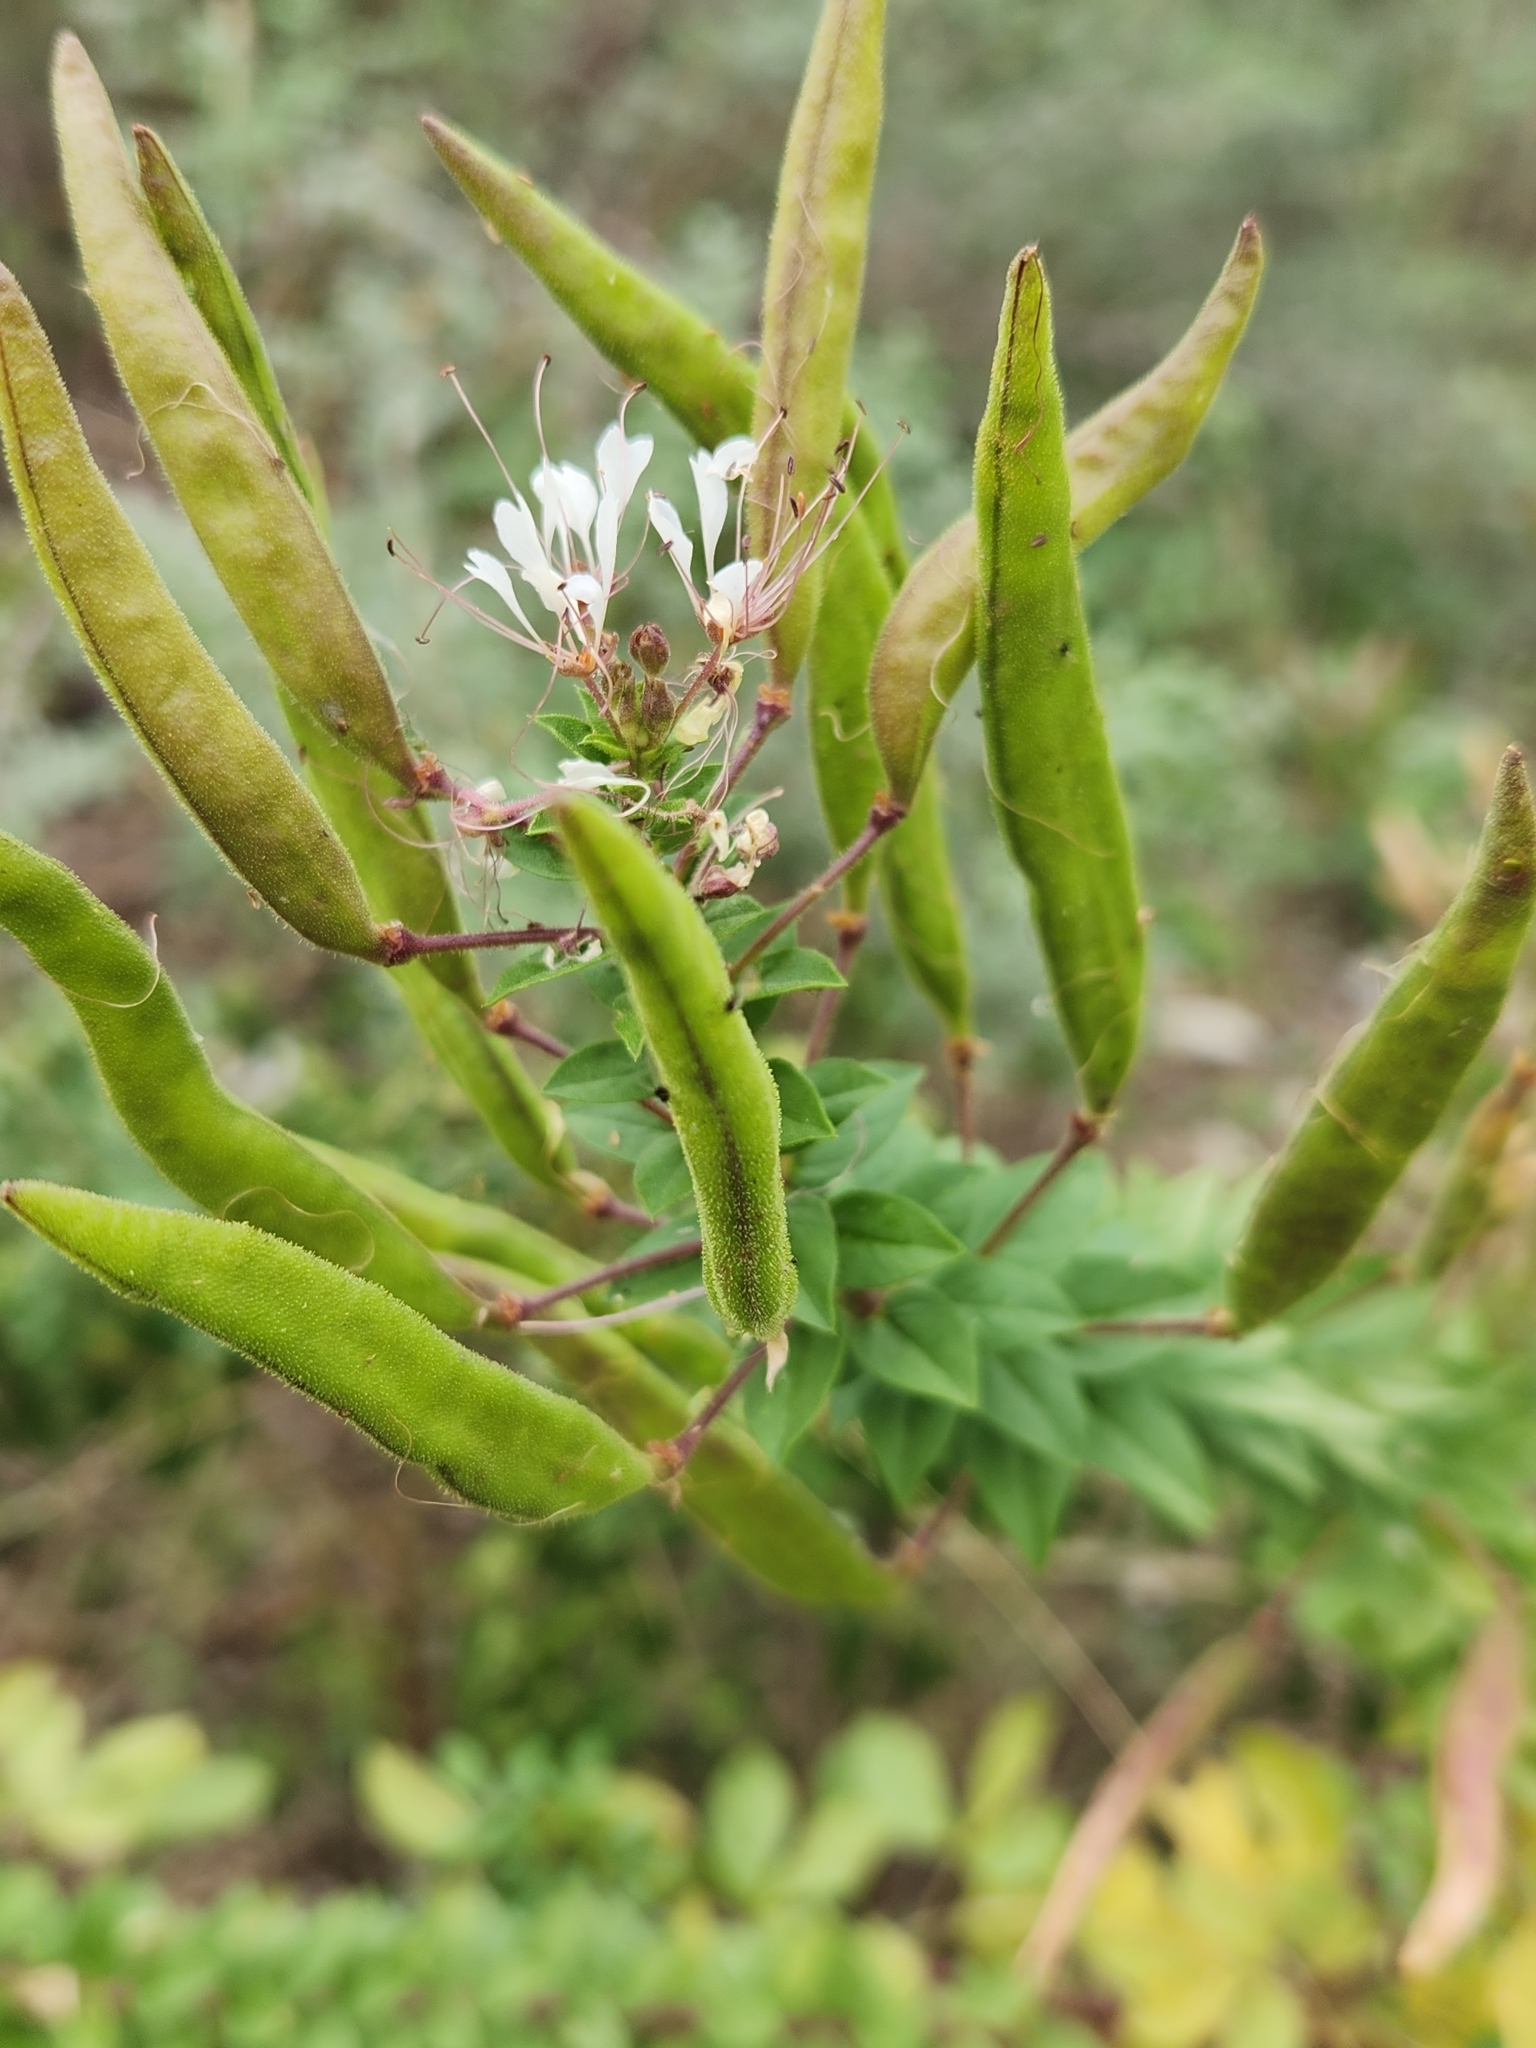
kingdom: Plantae
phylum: Tracheophyta
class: Magnoliopsida
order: Brassicales
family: Cleomaceae
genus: Polanisia
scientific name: Polanisia dodecandra
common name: Clammyweed
